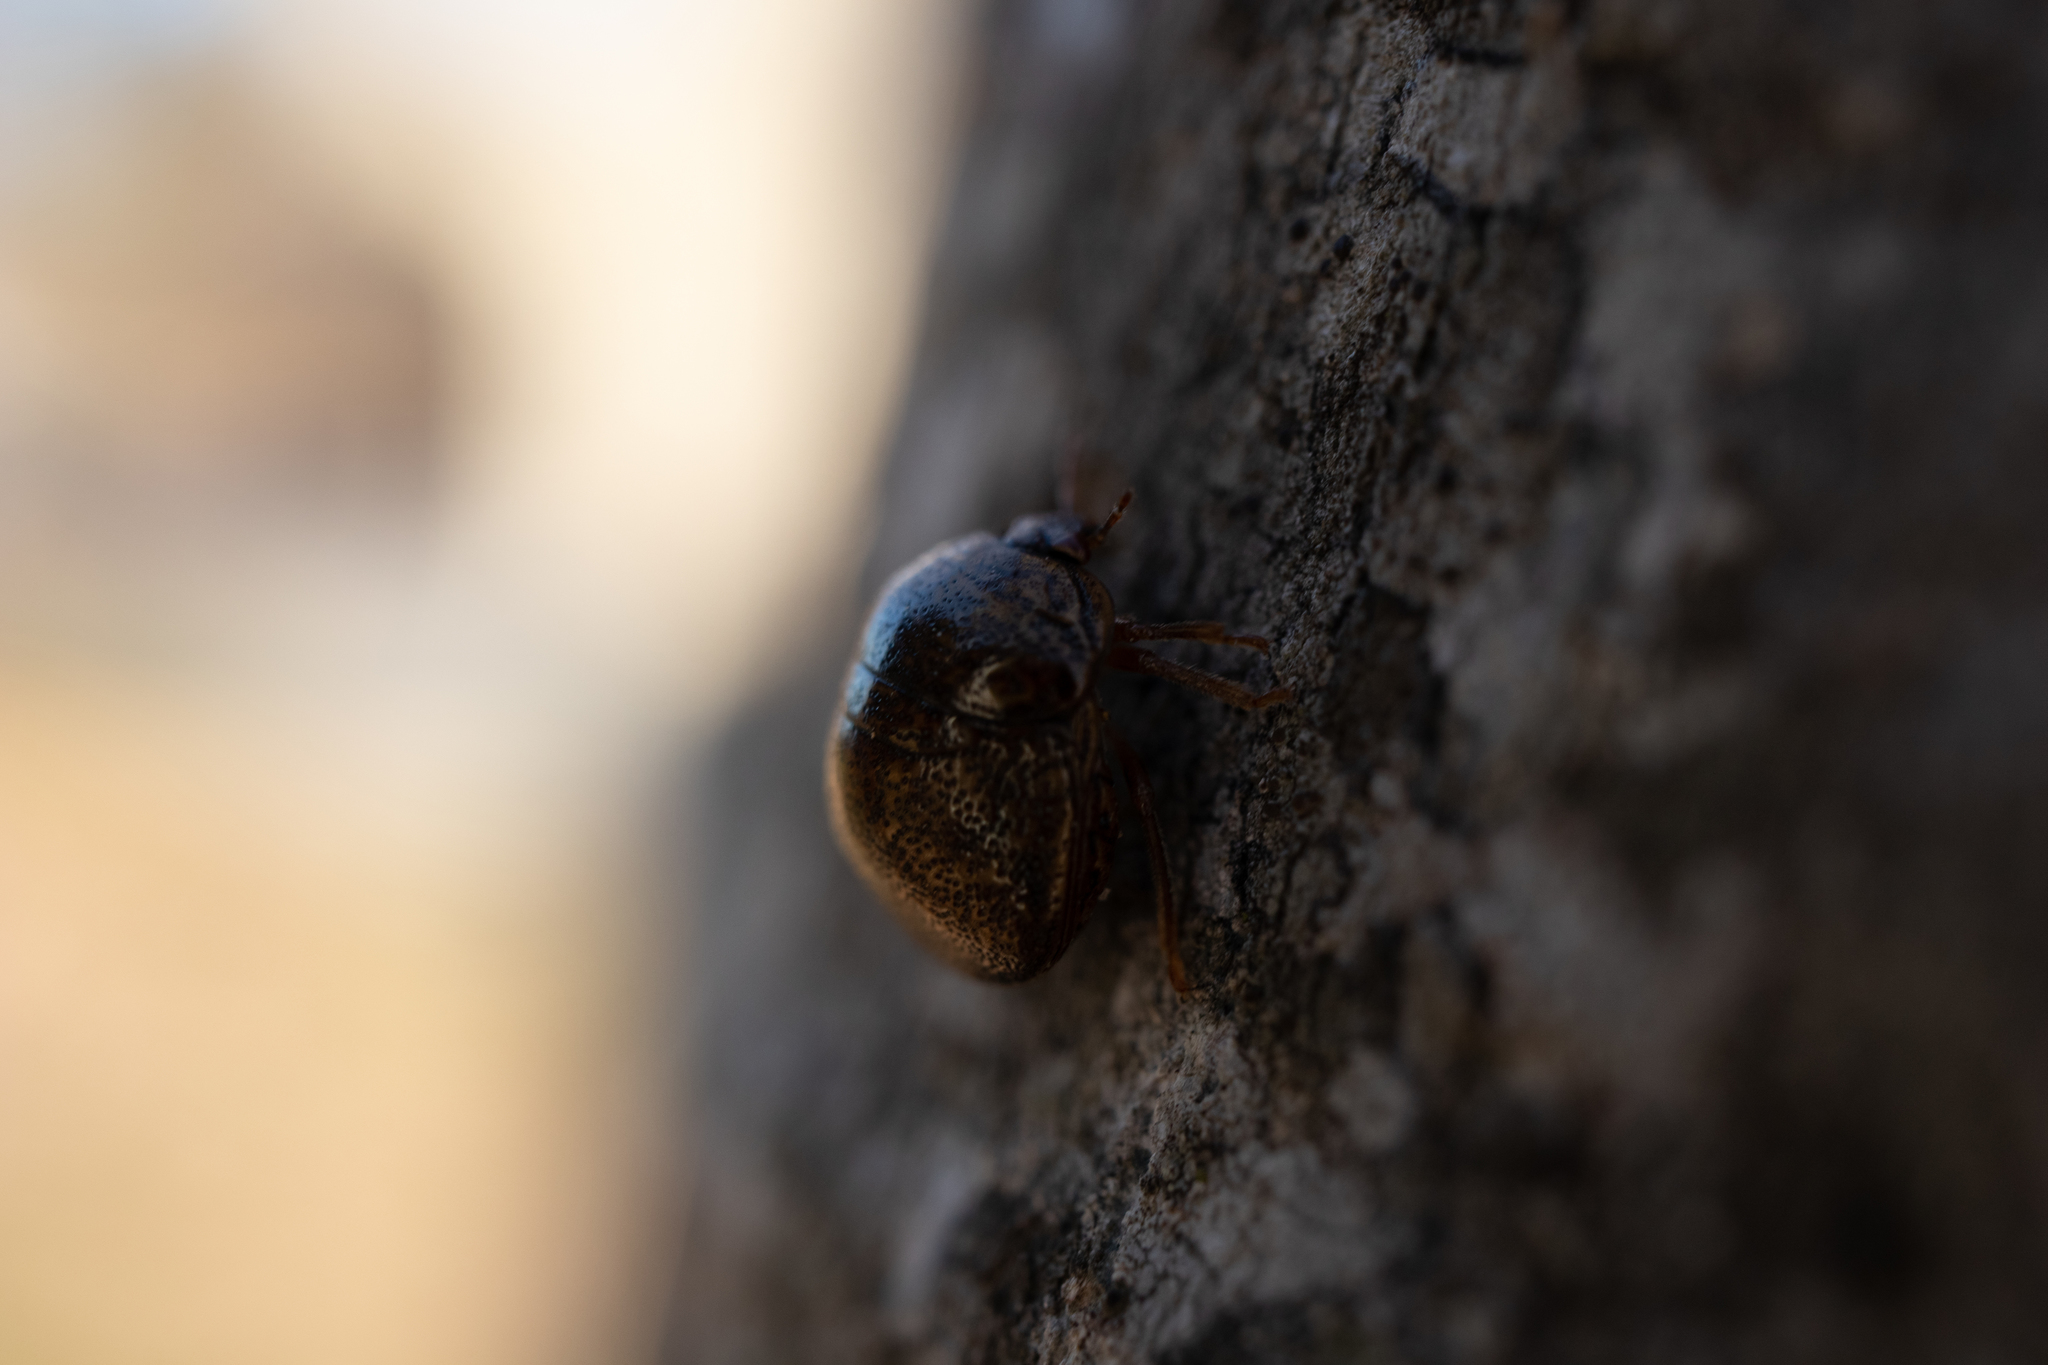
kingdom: Animalia
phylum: Arthropoda
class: Insecta
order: Hemiptera
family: Plataspidae
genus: Megacopta
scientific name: Megacopta cribraria
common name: Bean plataspid
